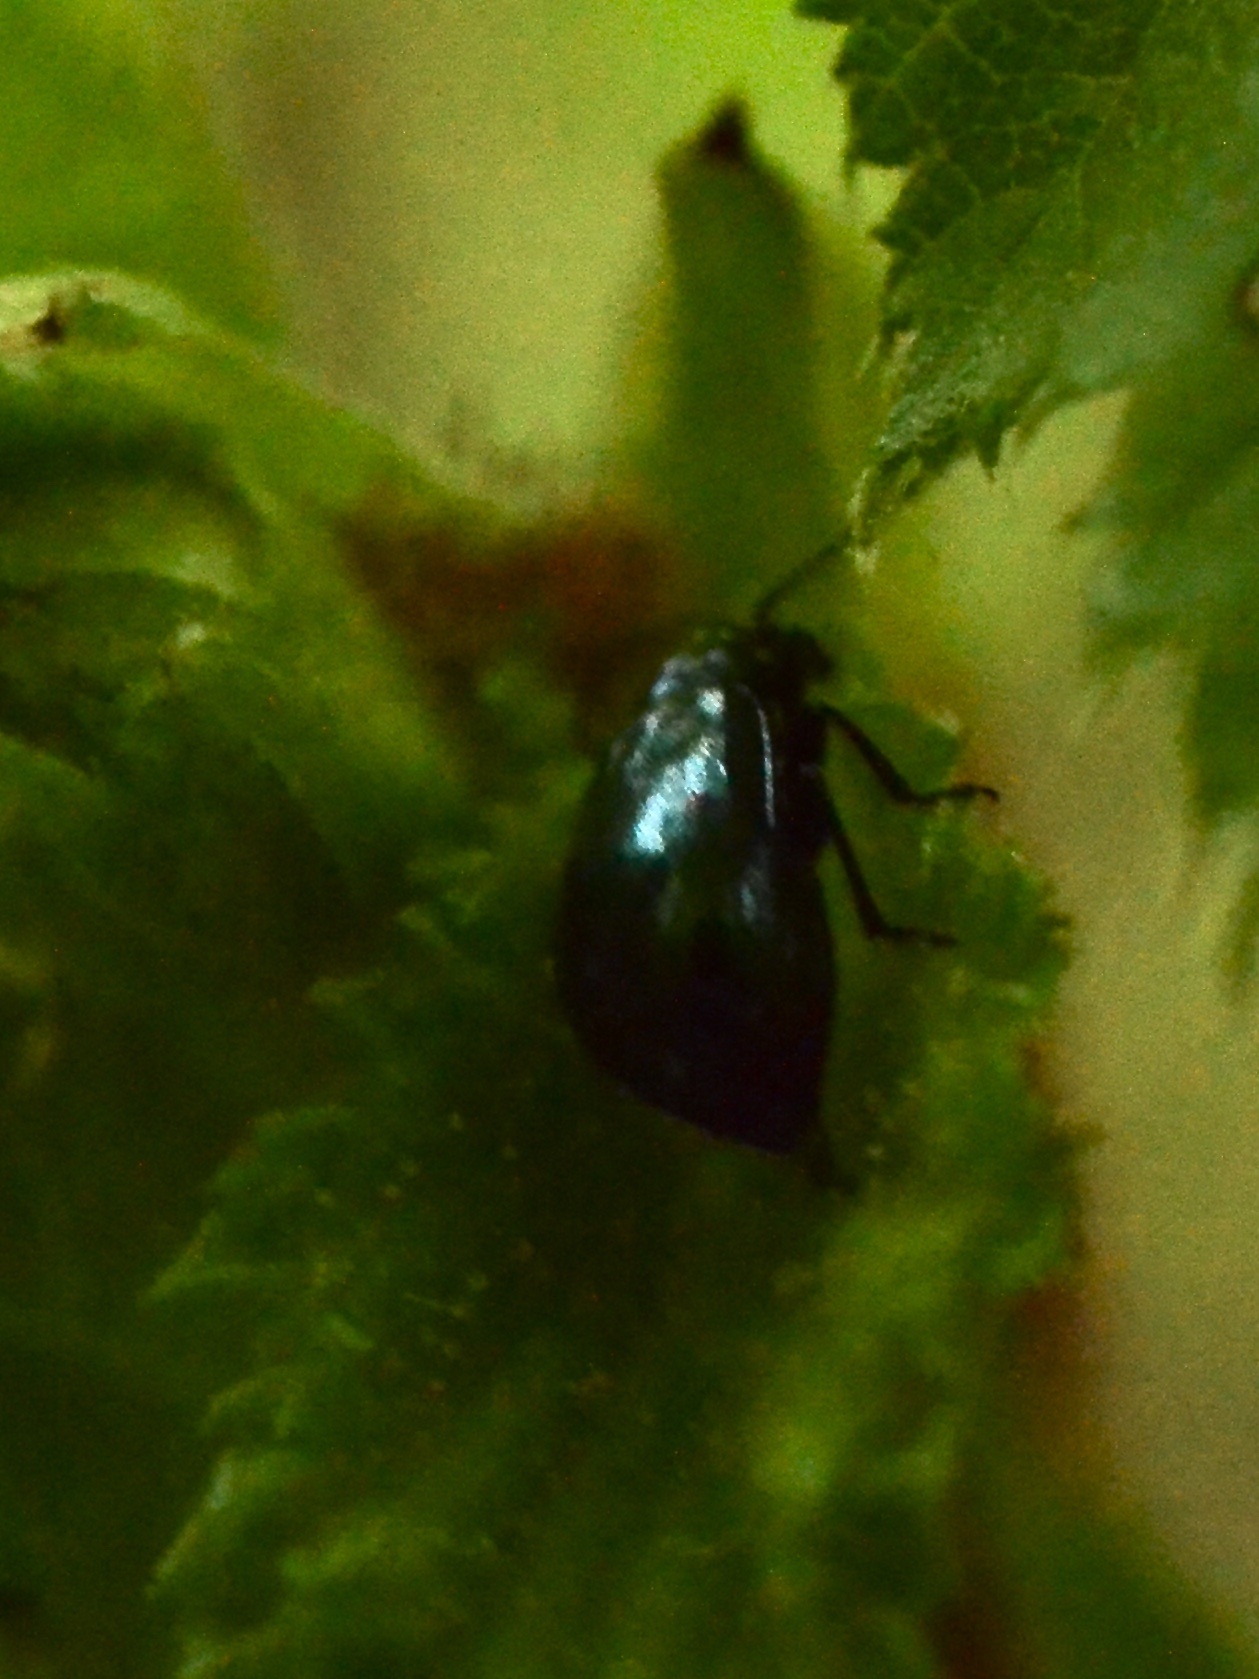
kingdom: Animalia
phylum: Arthropoda
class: Insecta
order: Coleoptera
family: Chrysomelidae
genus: Agelastica
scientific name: Agelastica alni
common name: Alder leaf beetle
